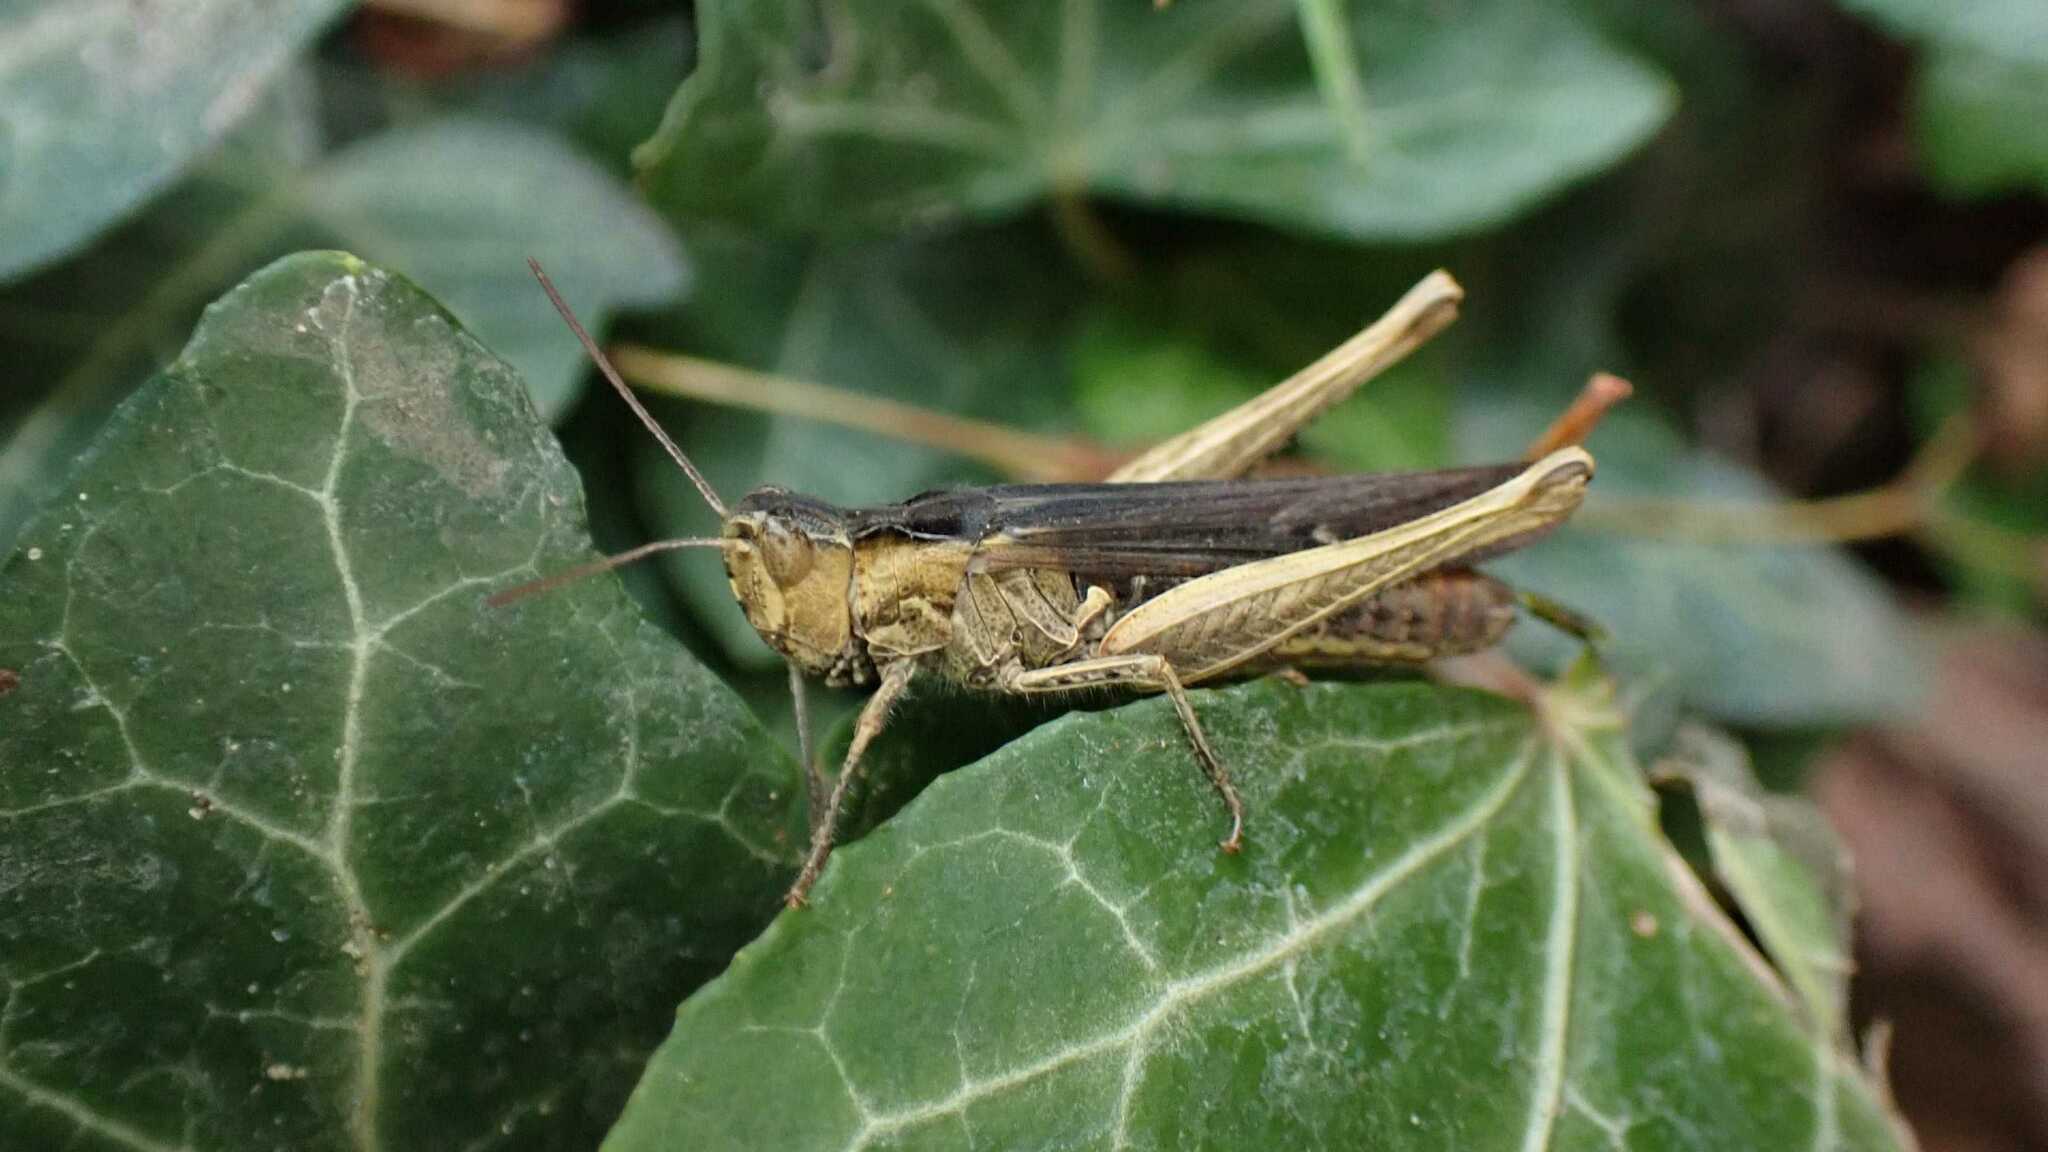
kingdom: Animalia
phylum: Arthropoda
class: Insecta
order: Orthoptera
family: Acrididae
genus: Chorthippus
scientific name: Chorthippus brunneus
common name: Field grasshopper
